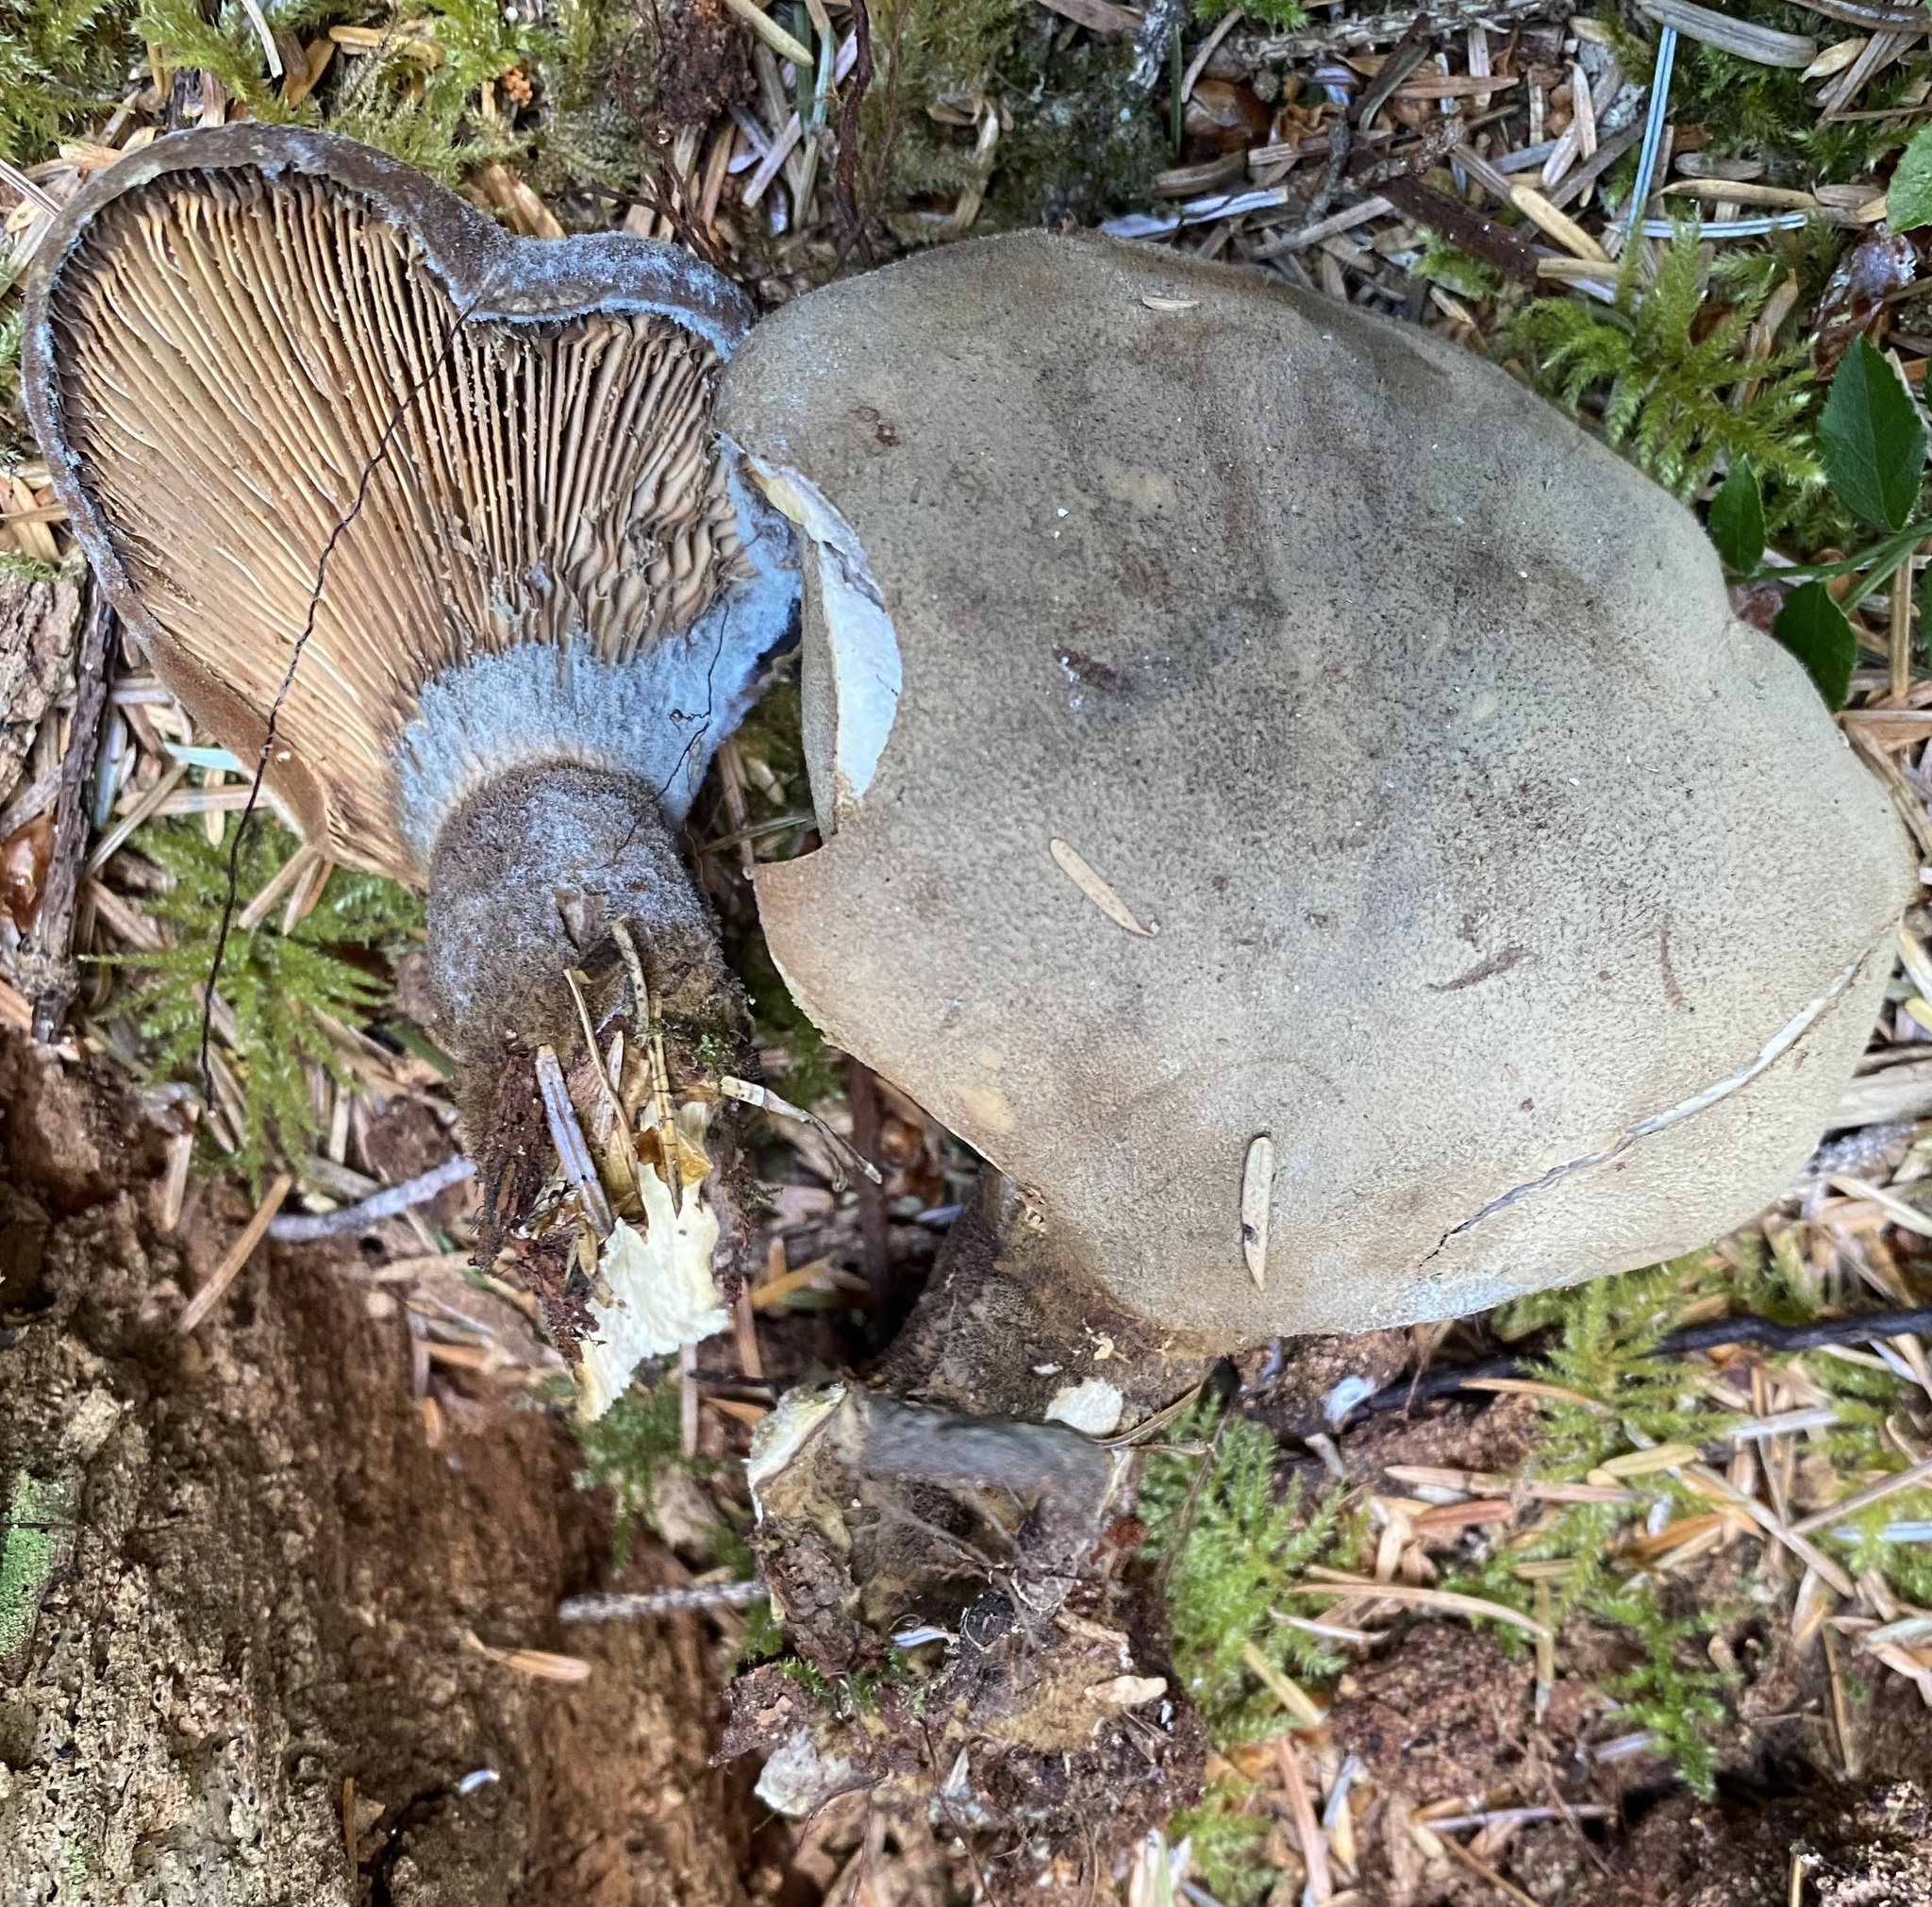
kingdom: Fungi
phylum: Basidiomycota
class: Agaricomycetes
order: Boletales
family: Tapinellaceae
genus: Tapinella
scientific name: Tapinella atrotomentosa
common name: Velvet rollrim
